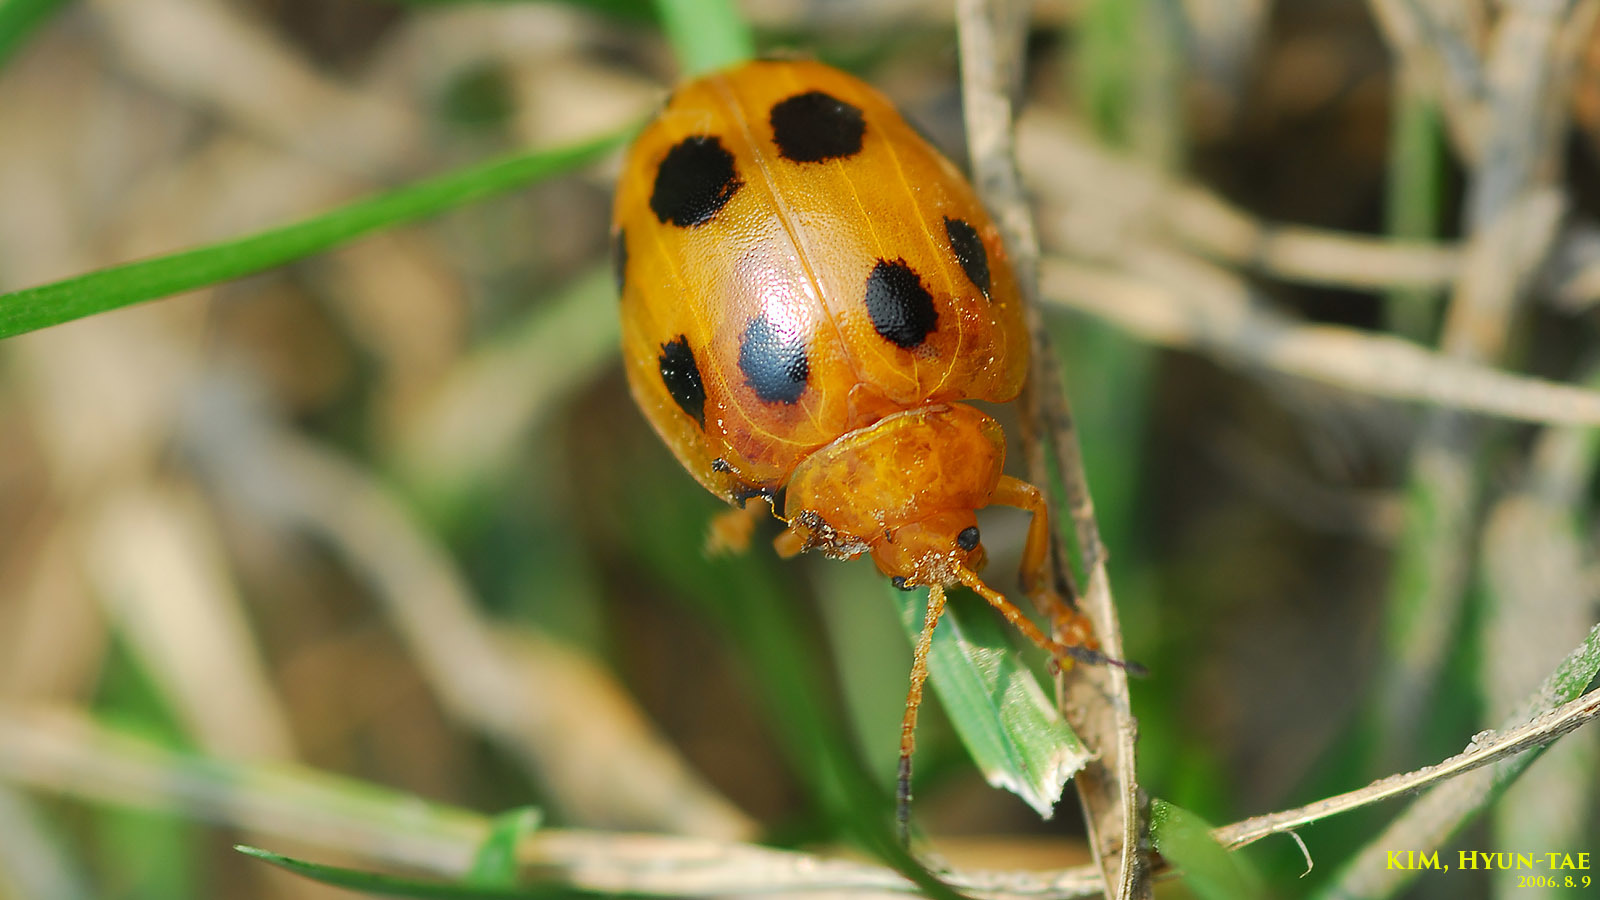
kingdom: Animalia
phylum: Arthropoda
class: Insecta
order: Coleoptera
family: Chrysomelidae
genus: Oides
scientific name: Oides decempunctata
